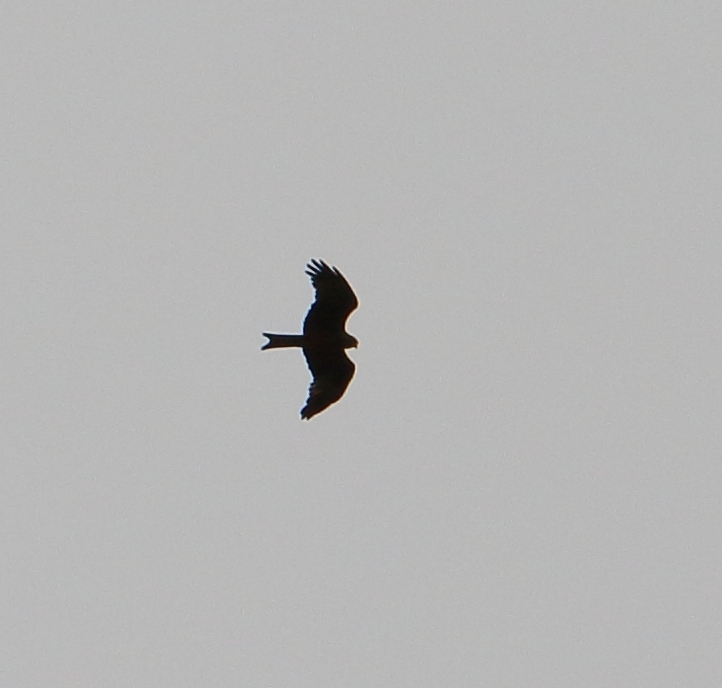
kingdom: Animalia
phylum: Chordata
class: Aves
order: Accipitriformes
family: Accipitridae
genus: Milvus
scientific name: Milvus migrans
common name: Black kite
